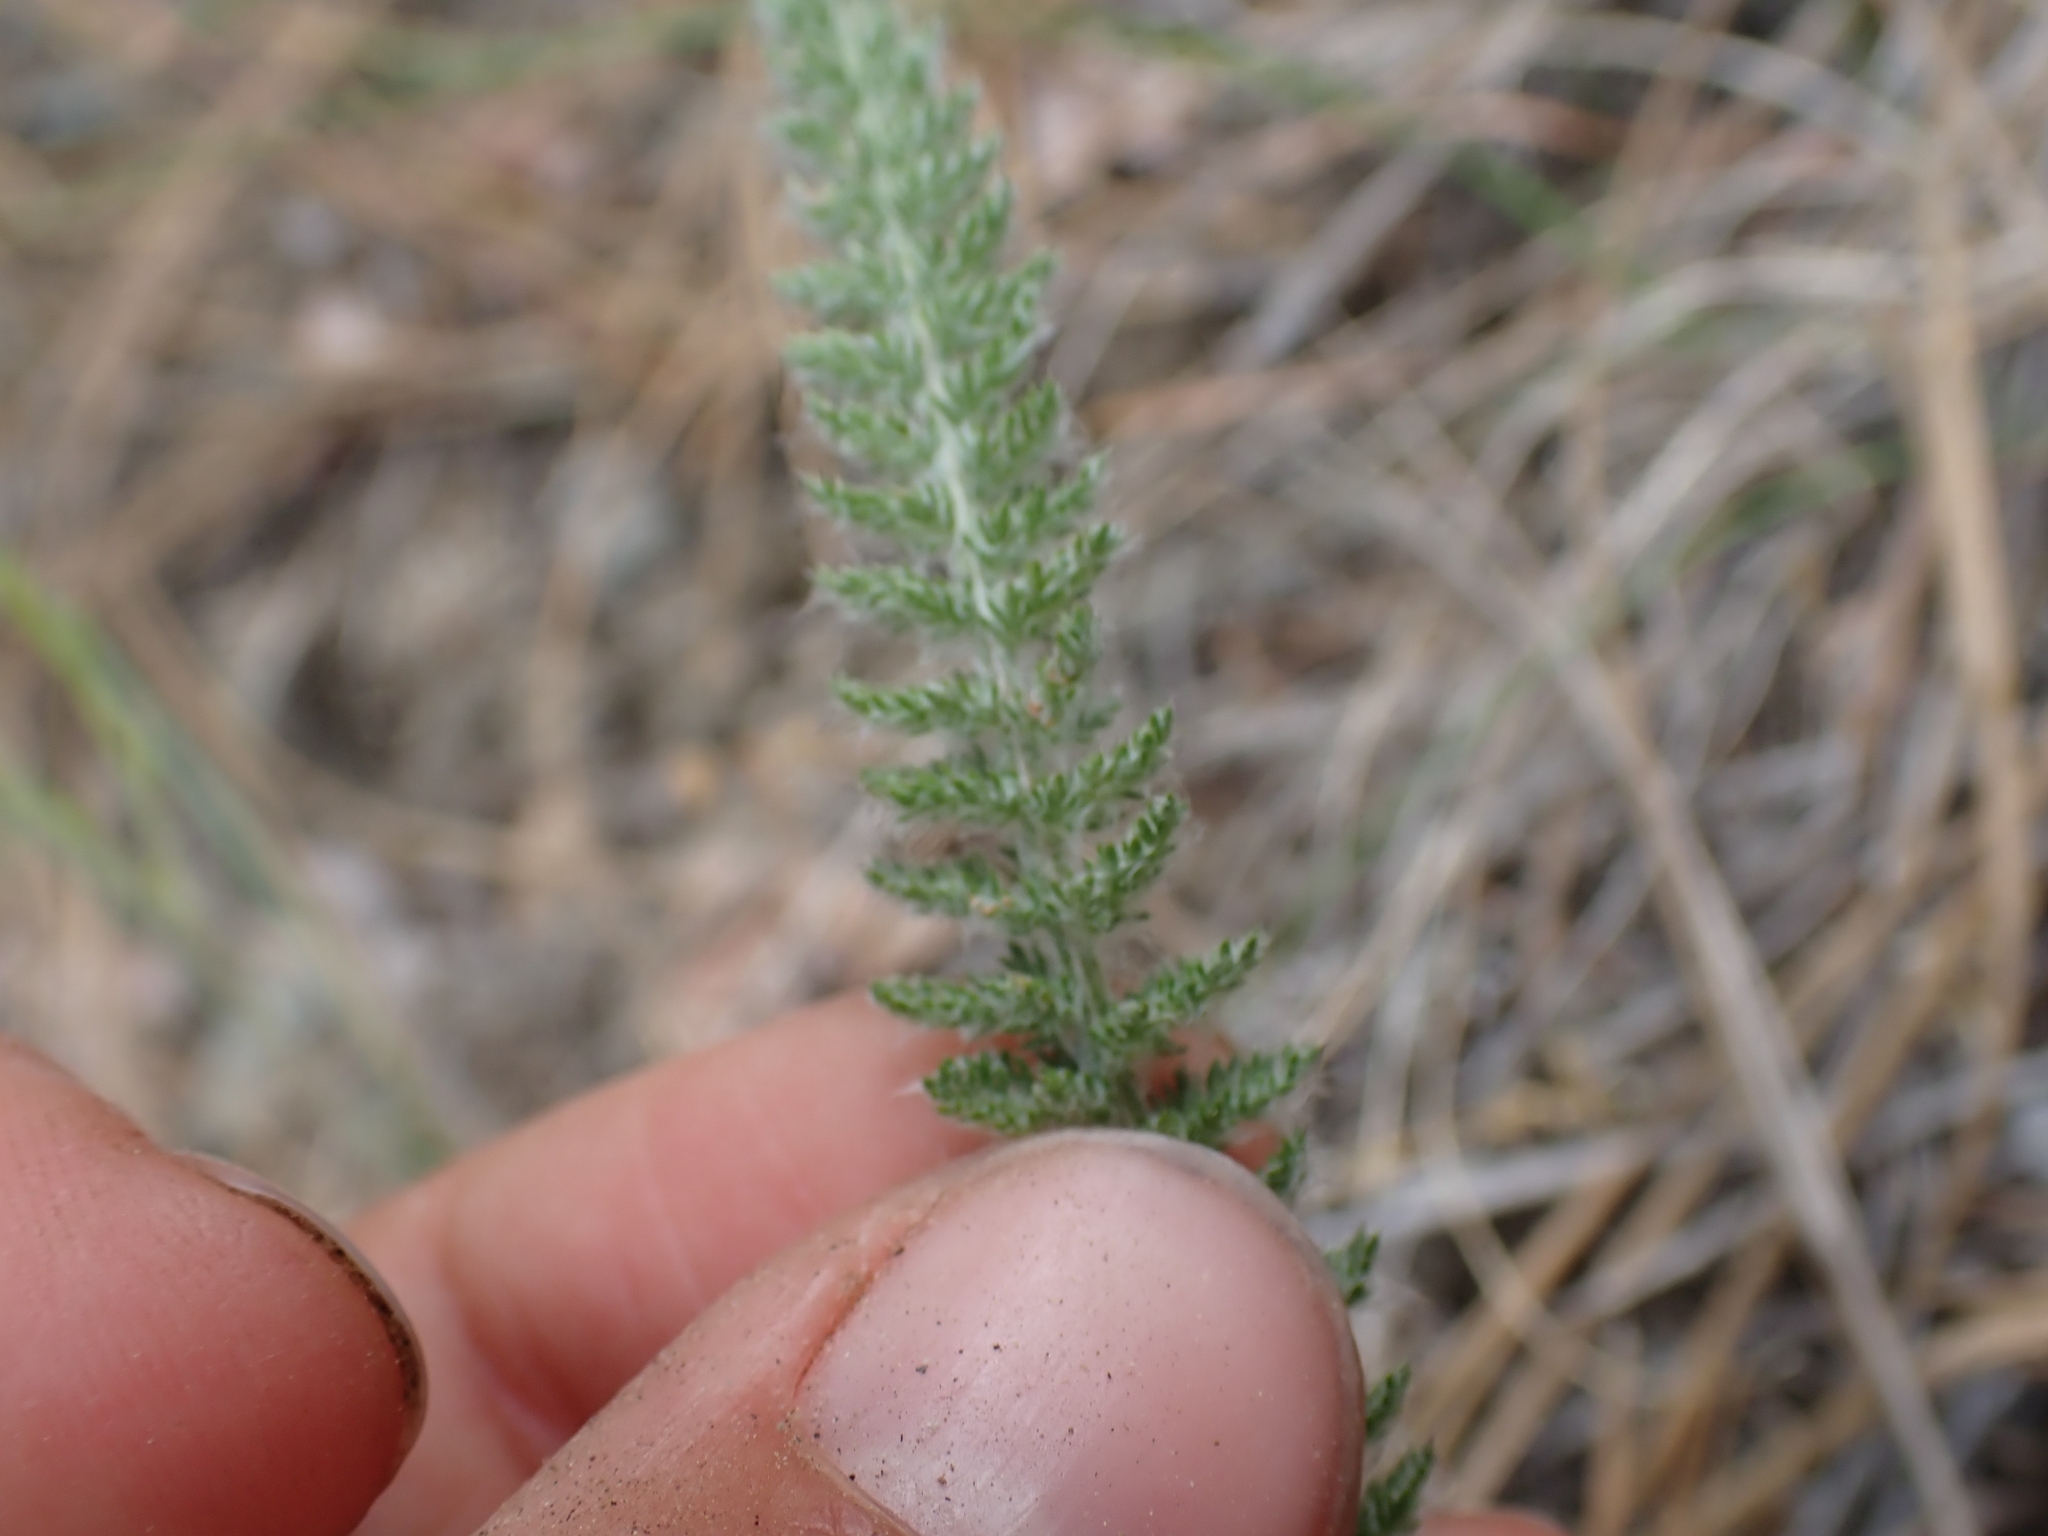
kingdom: Plantae
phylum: Tracheophyta
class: Magnoliopsida
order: Asterales
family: Asteraceae
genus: Achillea
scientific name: Achillea millefolium
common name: Yarrow
